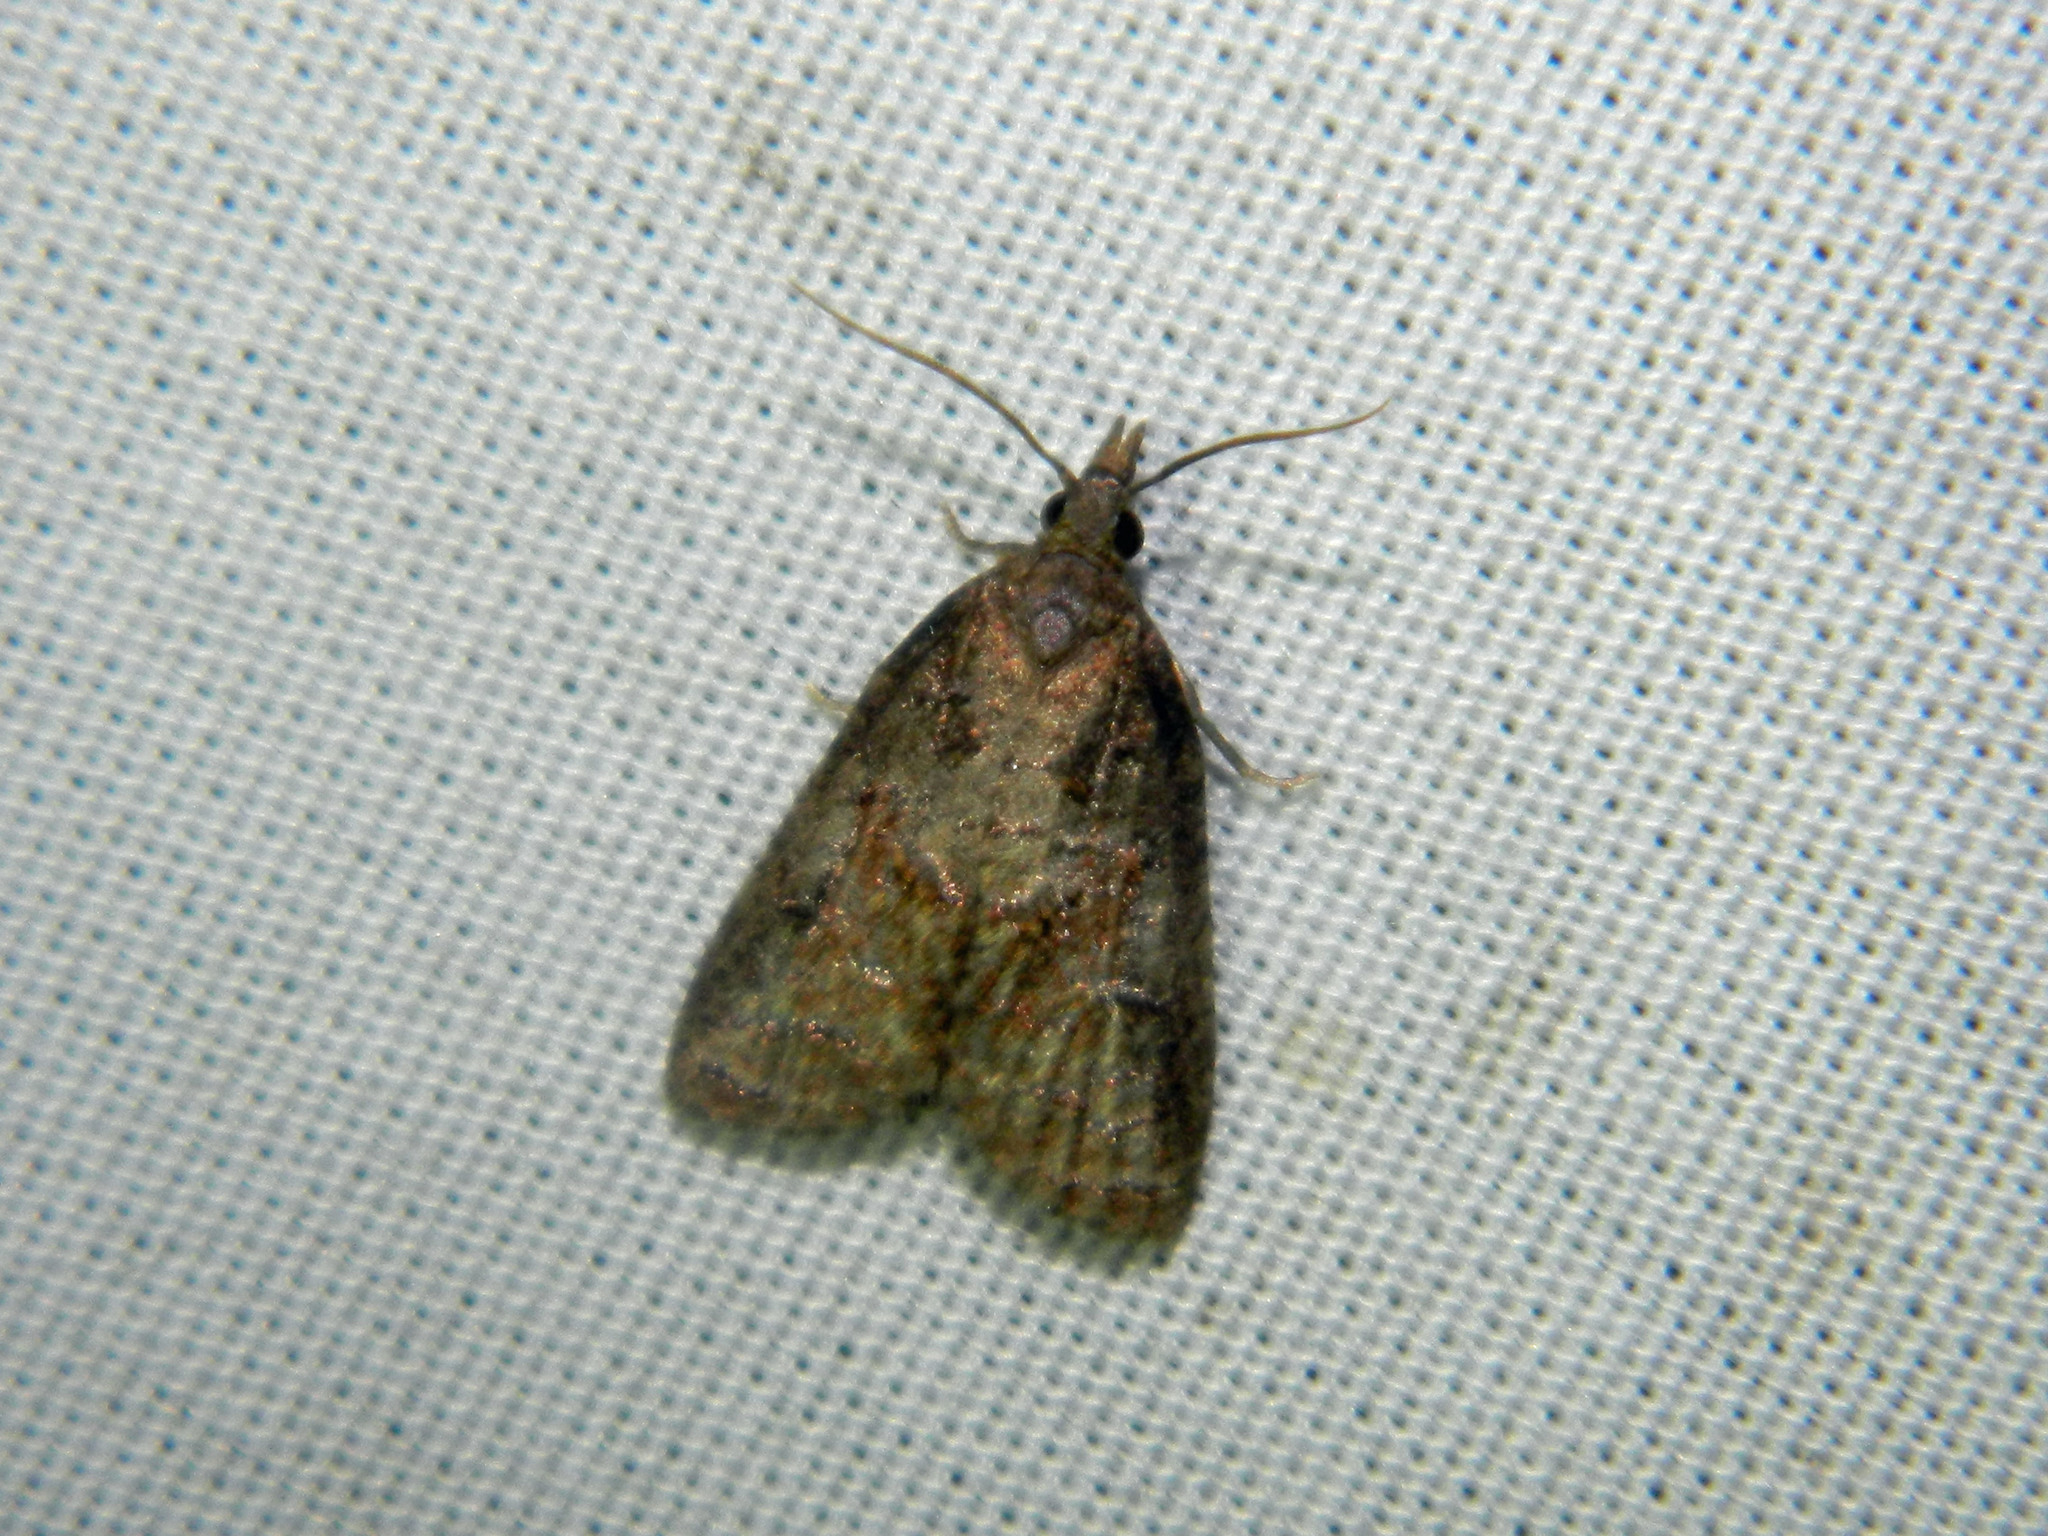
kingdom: Animalia
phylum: Arthropoda
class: Insecta
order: Lepidoptera
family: Tortricidae
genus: Platynota
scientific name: Platynota idaeusalis
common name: Tufted apple bud moth
